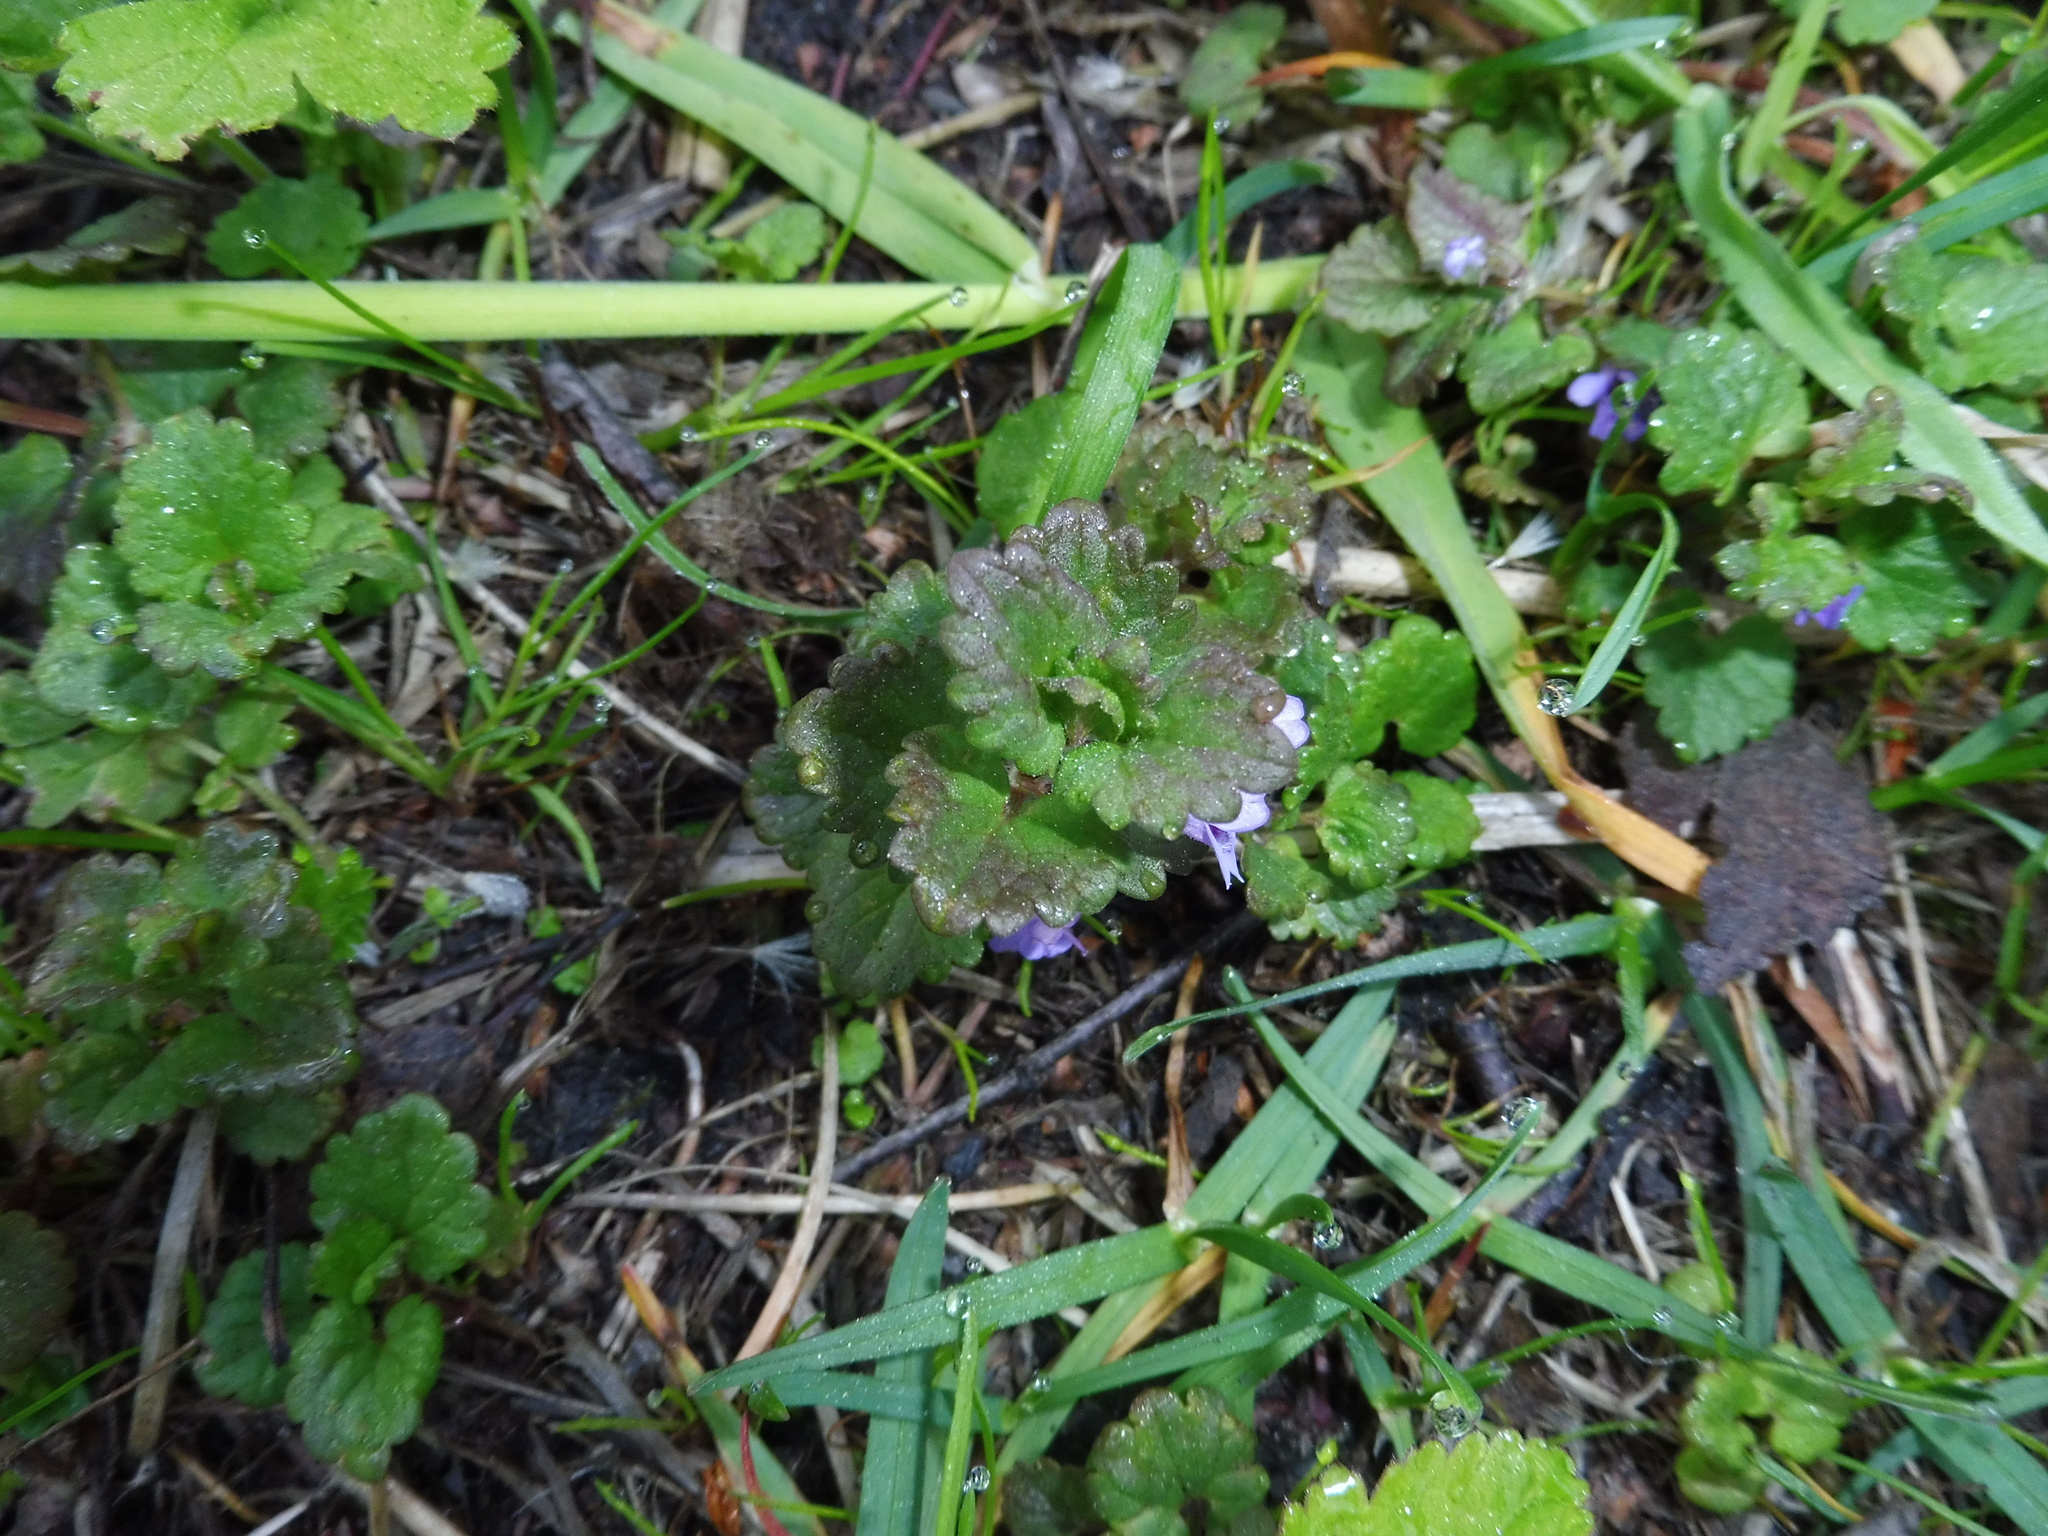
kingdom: Plantae
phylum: Tracheophyta
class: Magnoliopsida
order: Lamiales
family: Lamiaceae
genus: Glechoma
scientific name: Glechoma hederacea
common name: Ground ivy
